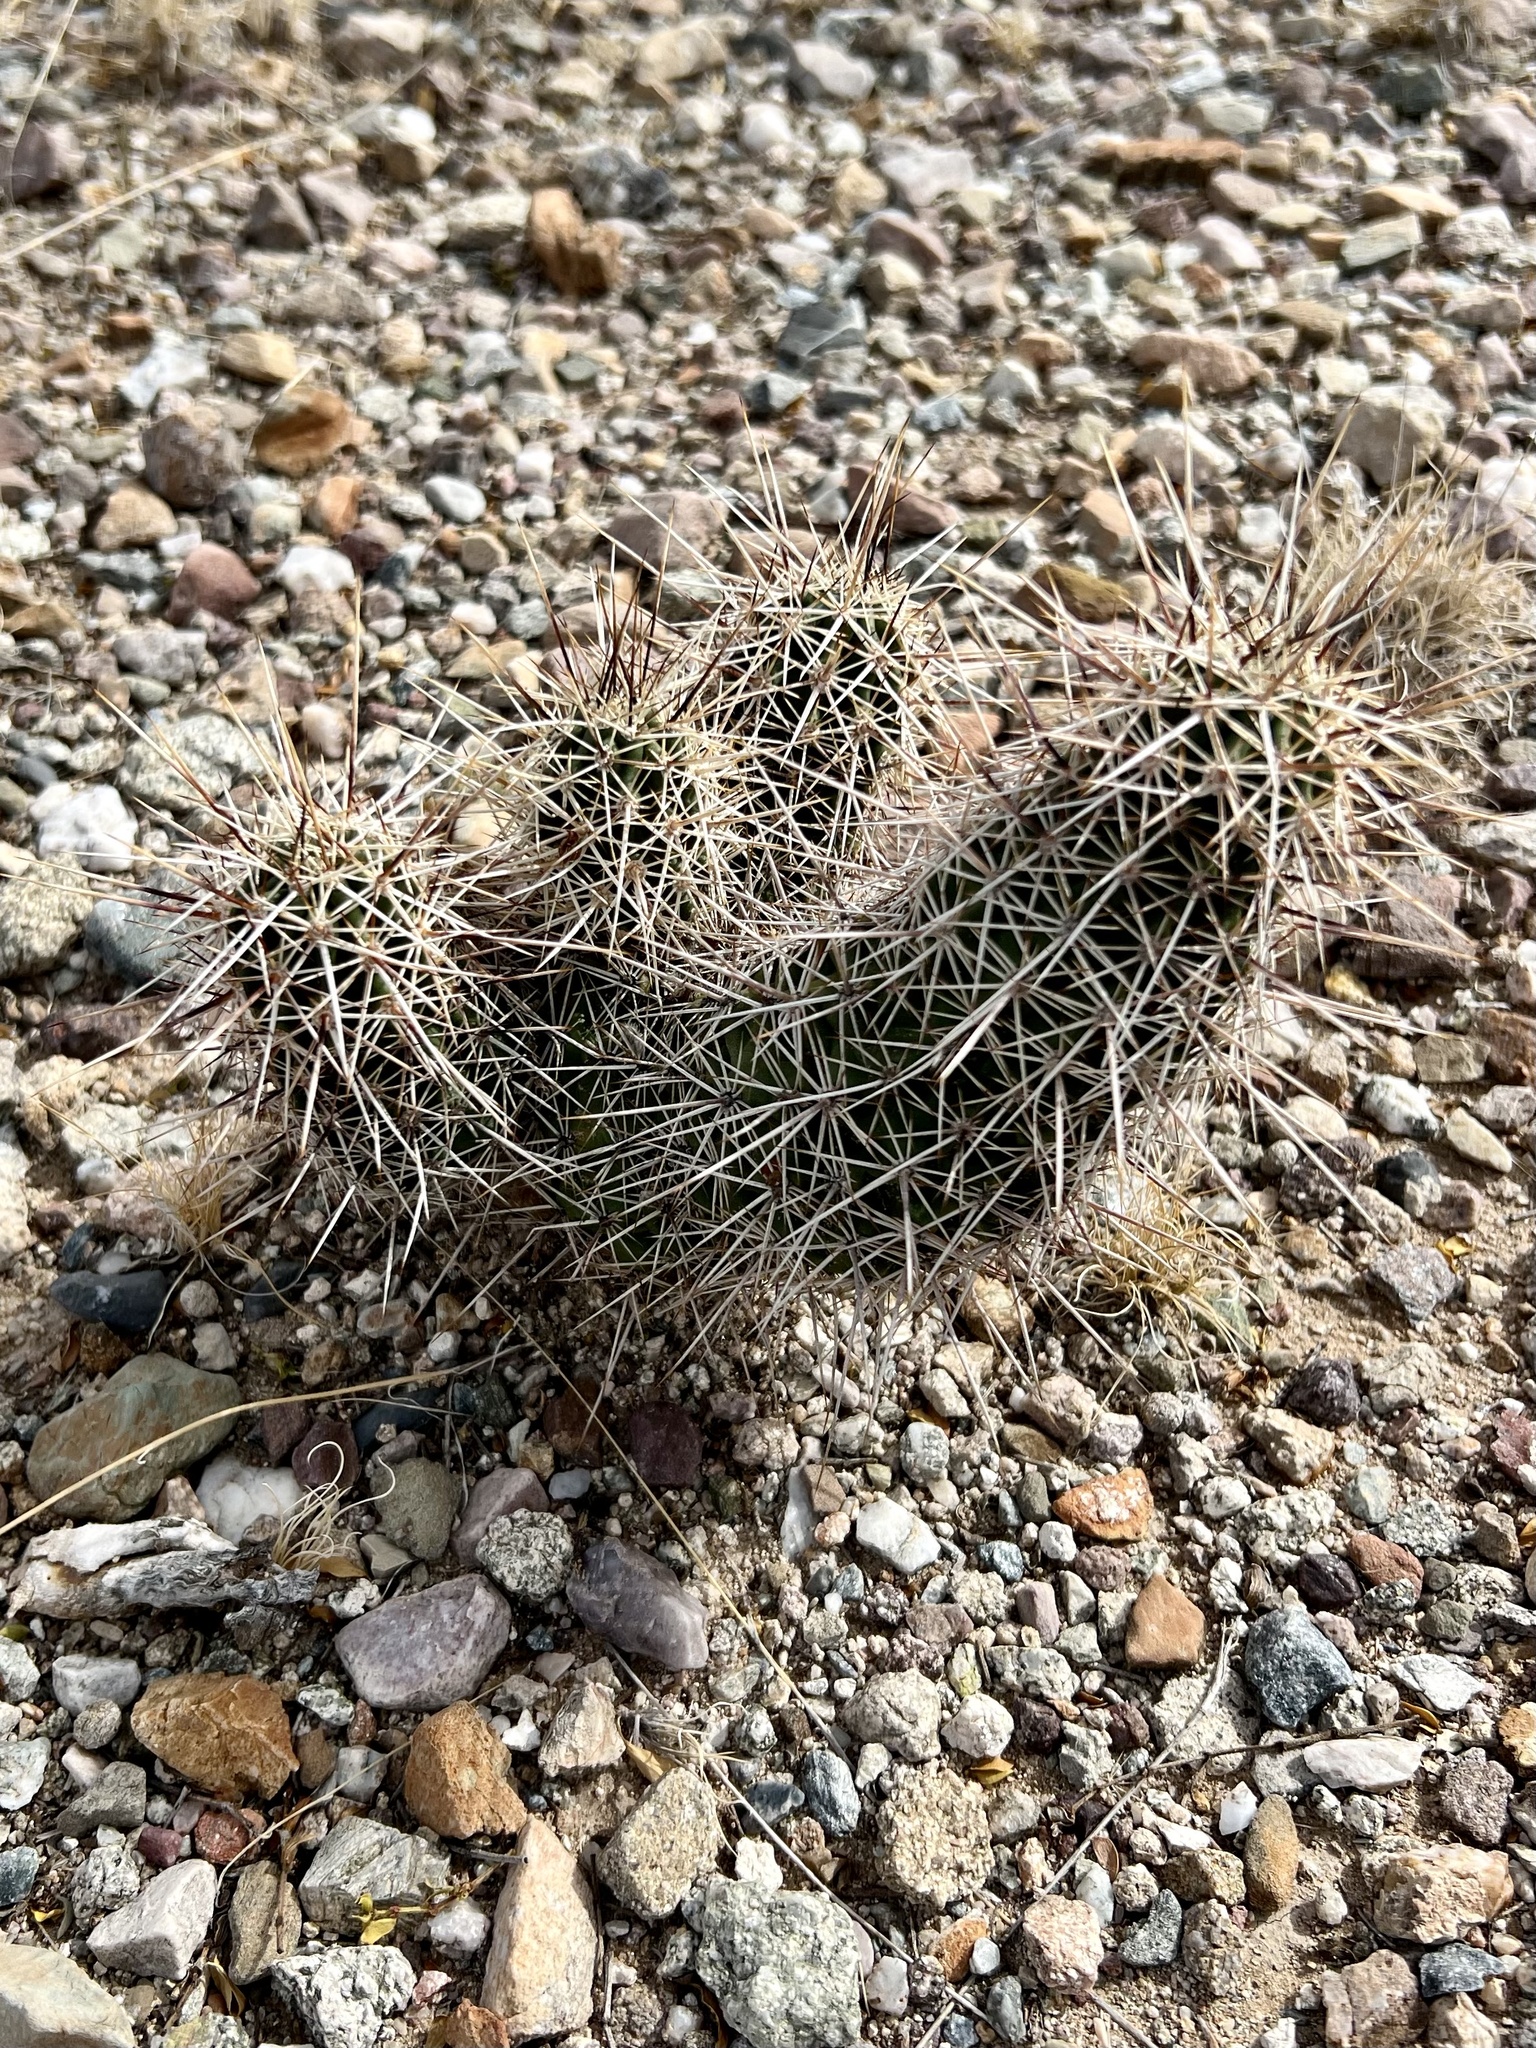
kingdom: Plantae
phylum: Tracheophyta
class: Magnoliopsida
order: Caryophyllales
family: Cactaceae
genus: Echinocereus
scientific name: Echinocereus fasciculatus
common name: Bundle hedgehog
